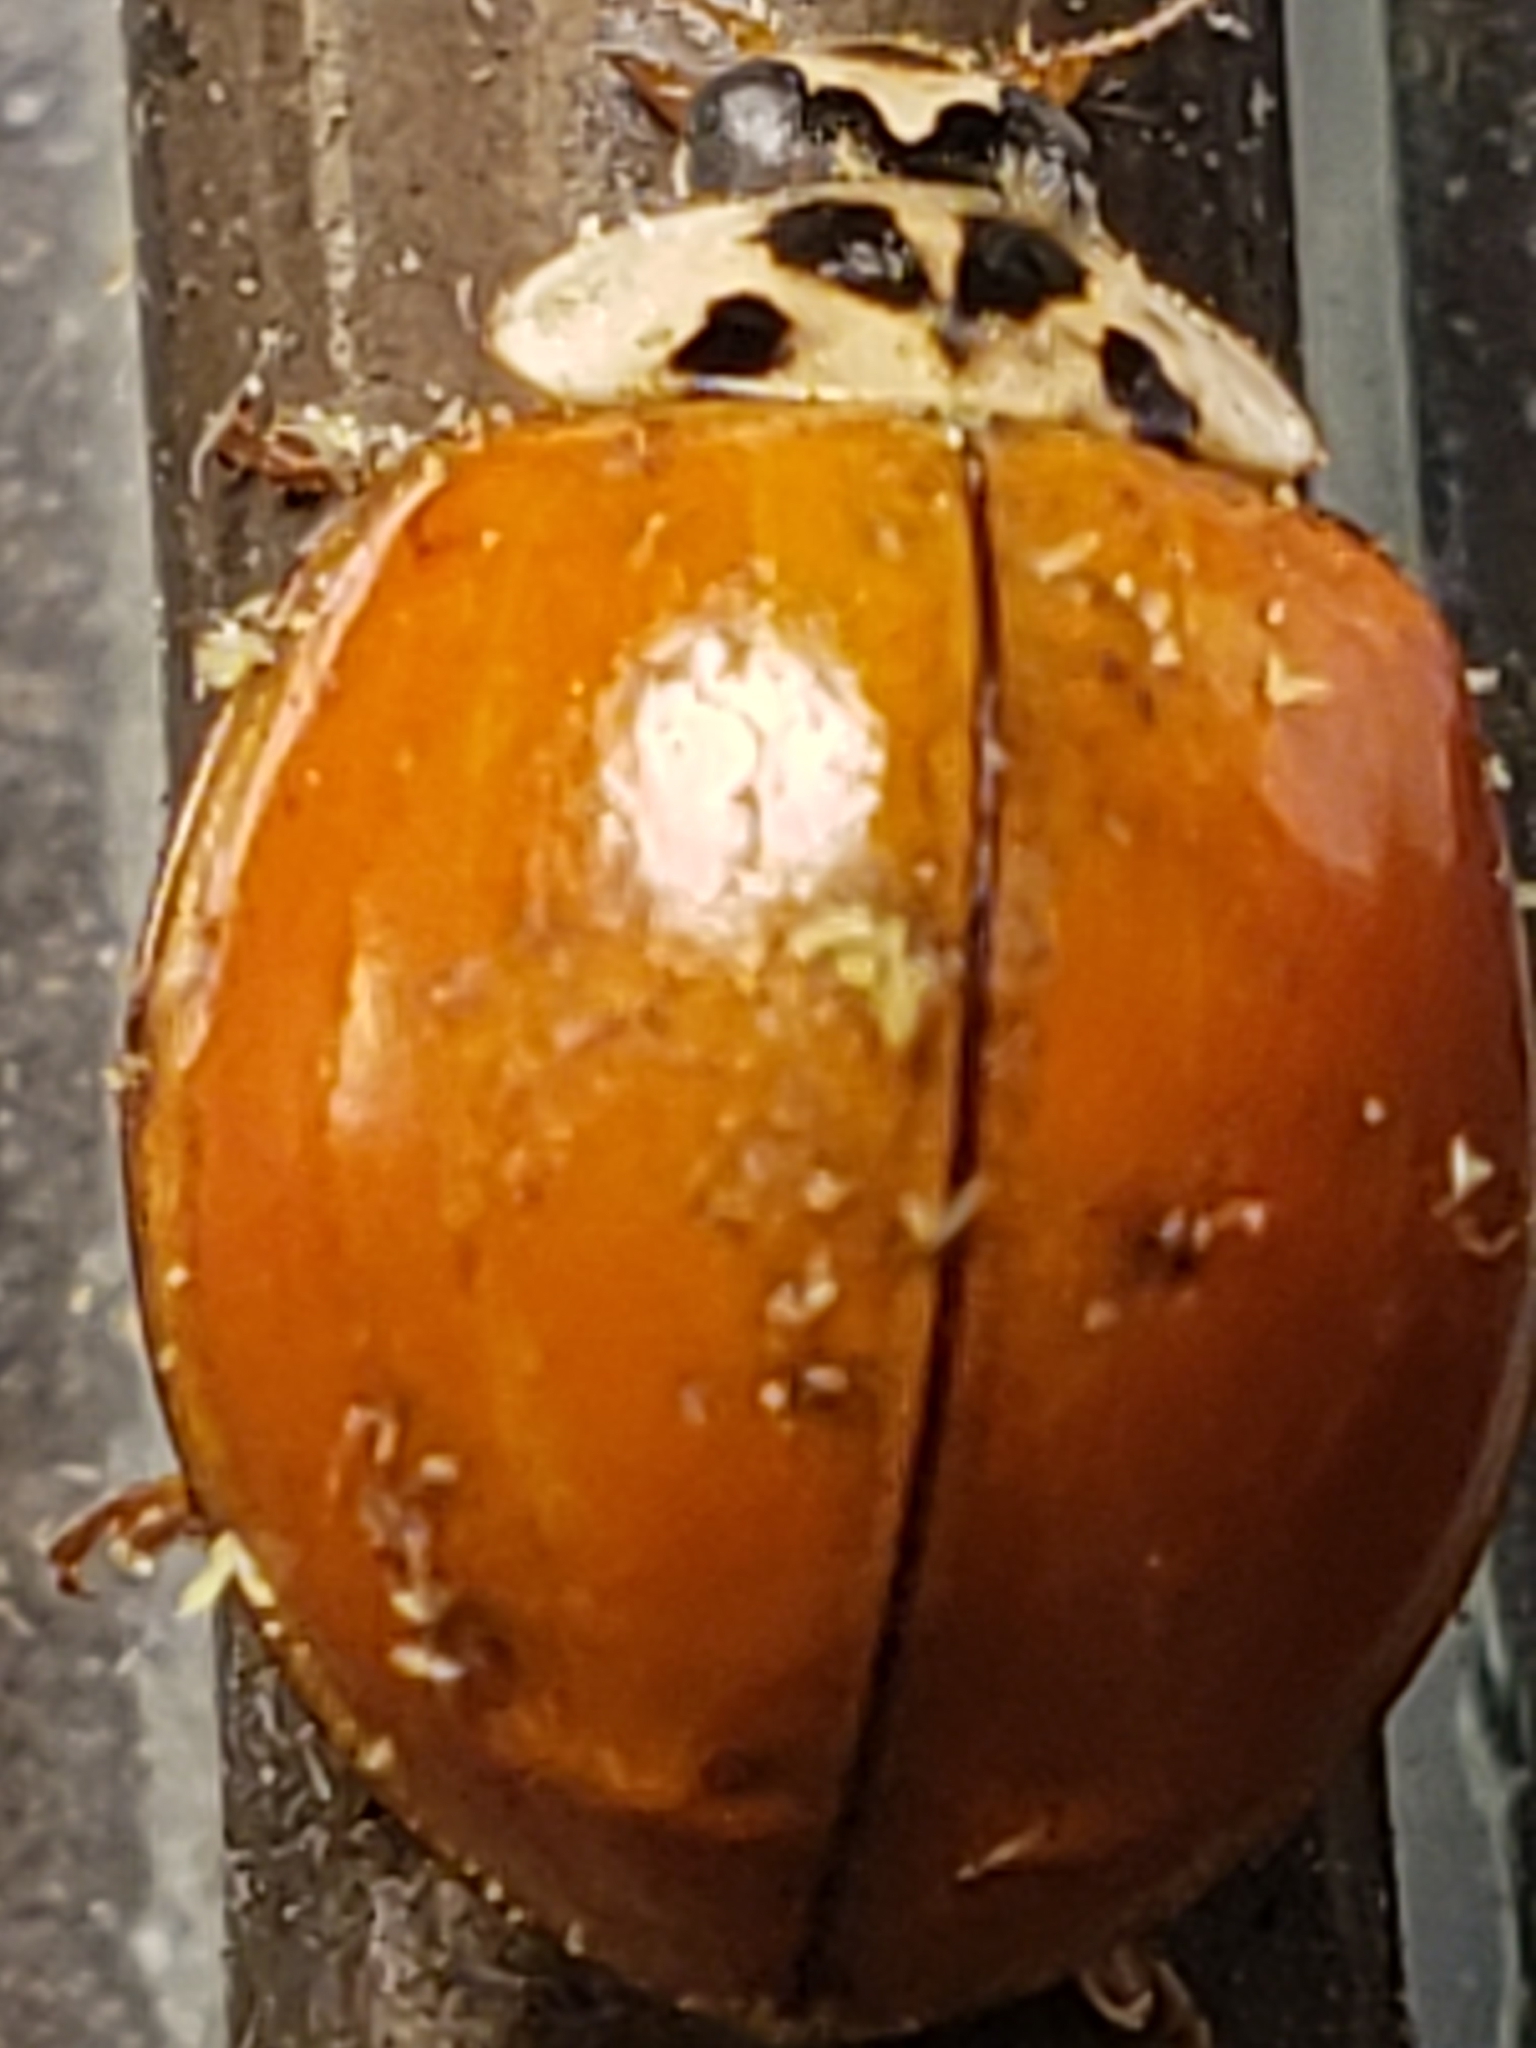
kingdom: Animalia
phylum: Arthropoda
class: Insecta
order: Coleoptera
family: Coccinellidae
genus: Harmonia
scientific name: Harmonia axyridis
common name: Harlequin ladybird
